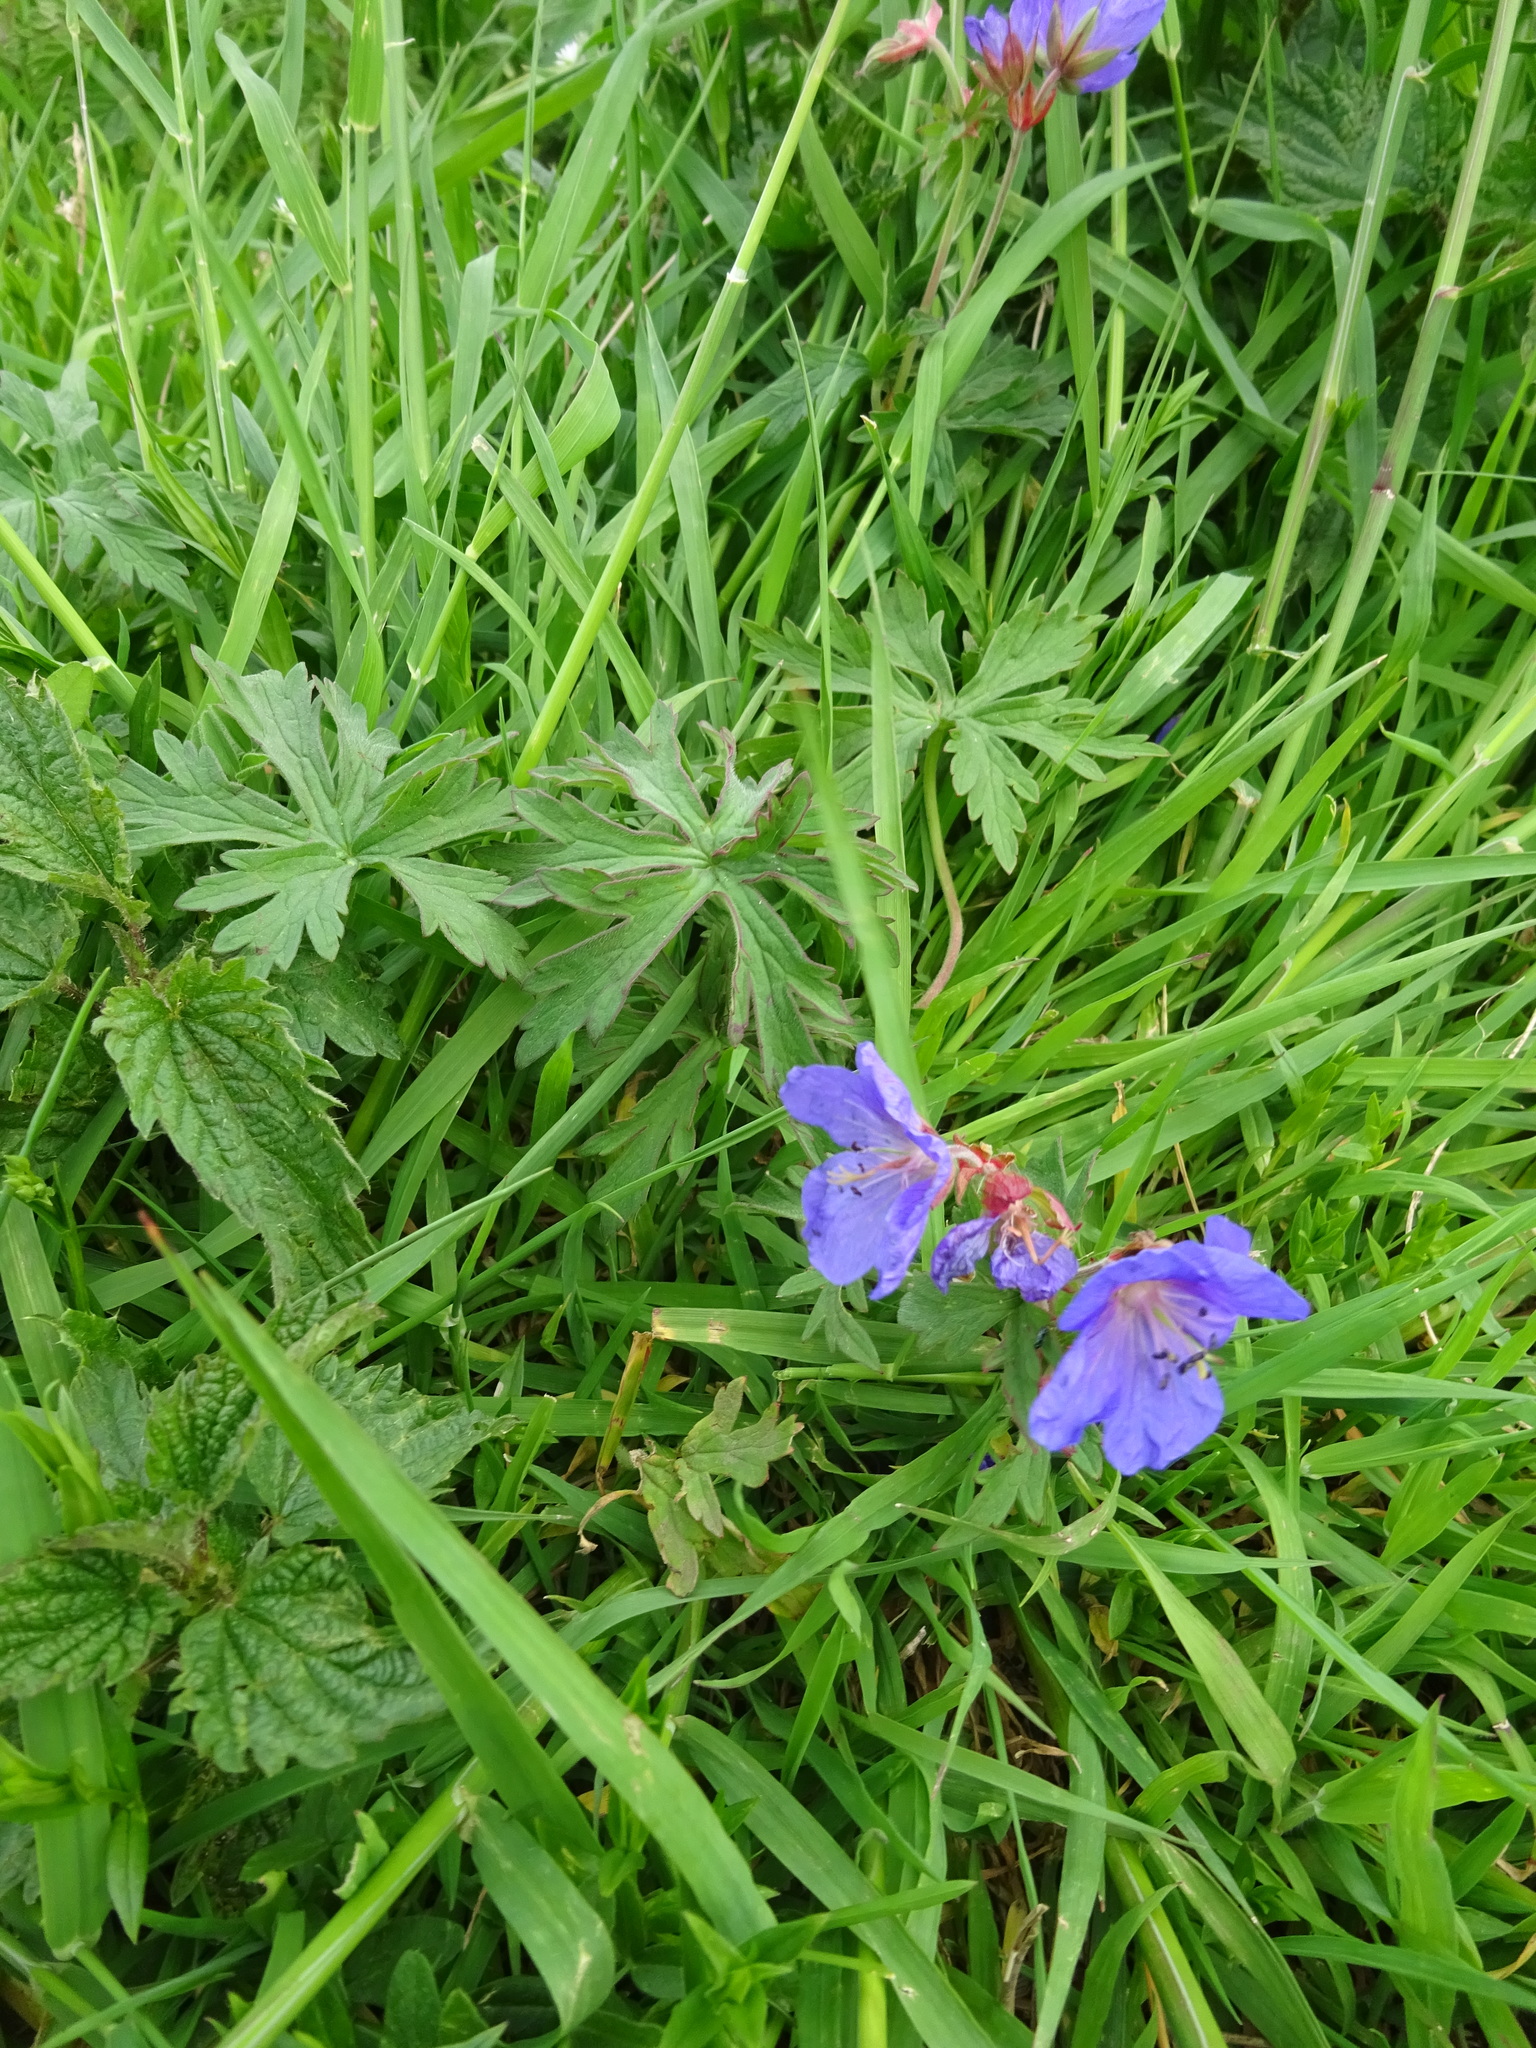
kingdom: Plantae
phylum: Tracheophyta
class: Magnoliopsida
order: Geraniales
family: Geraniaceae
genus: Geranium
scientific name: Geranium pratense
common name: Meadow crane's-bill
